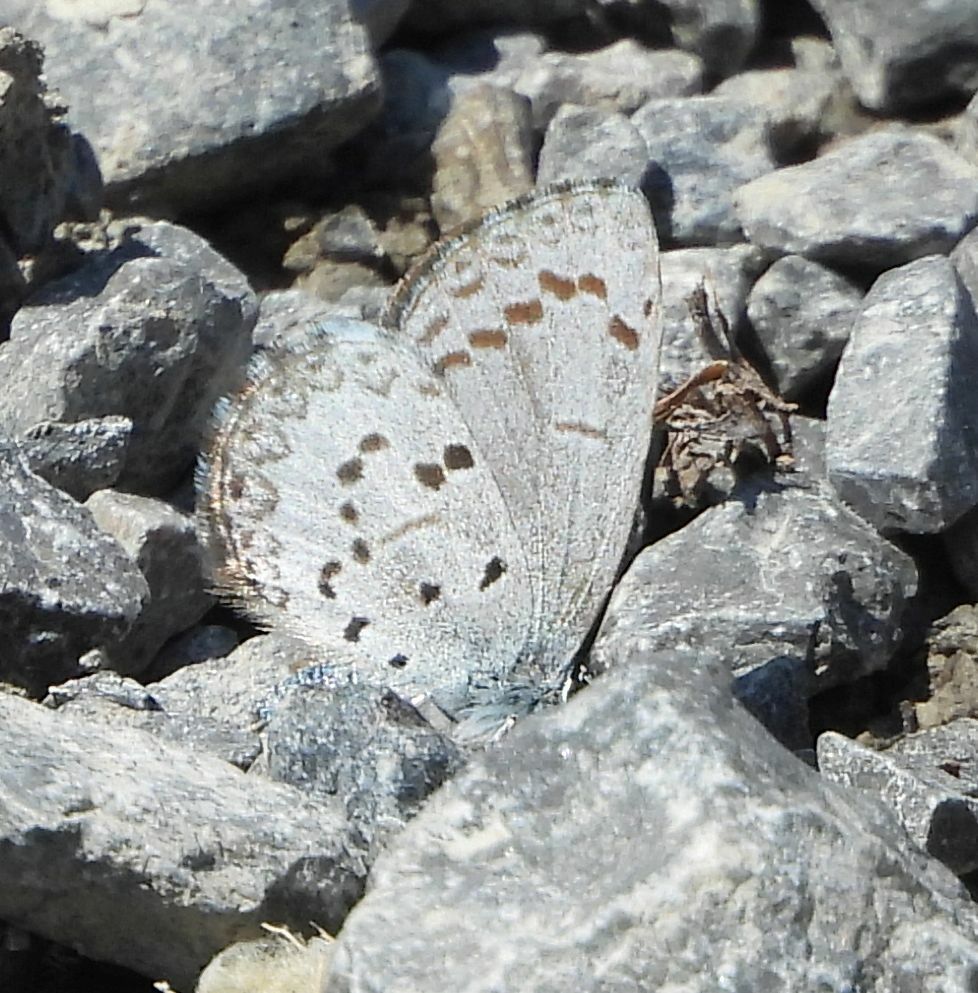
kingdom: Animalia
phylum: Arthropoda
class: Insecta
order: Lepidoptera
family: Lycaenidae
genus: Celastrina
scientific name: Celastrina lucia
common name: Lucia azure
